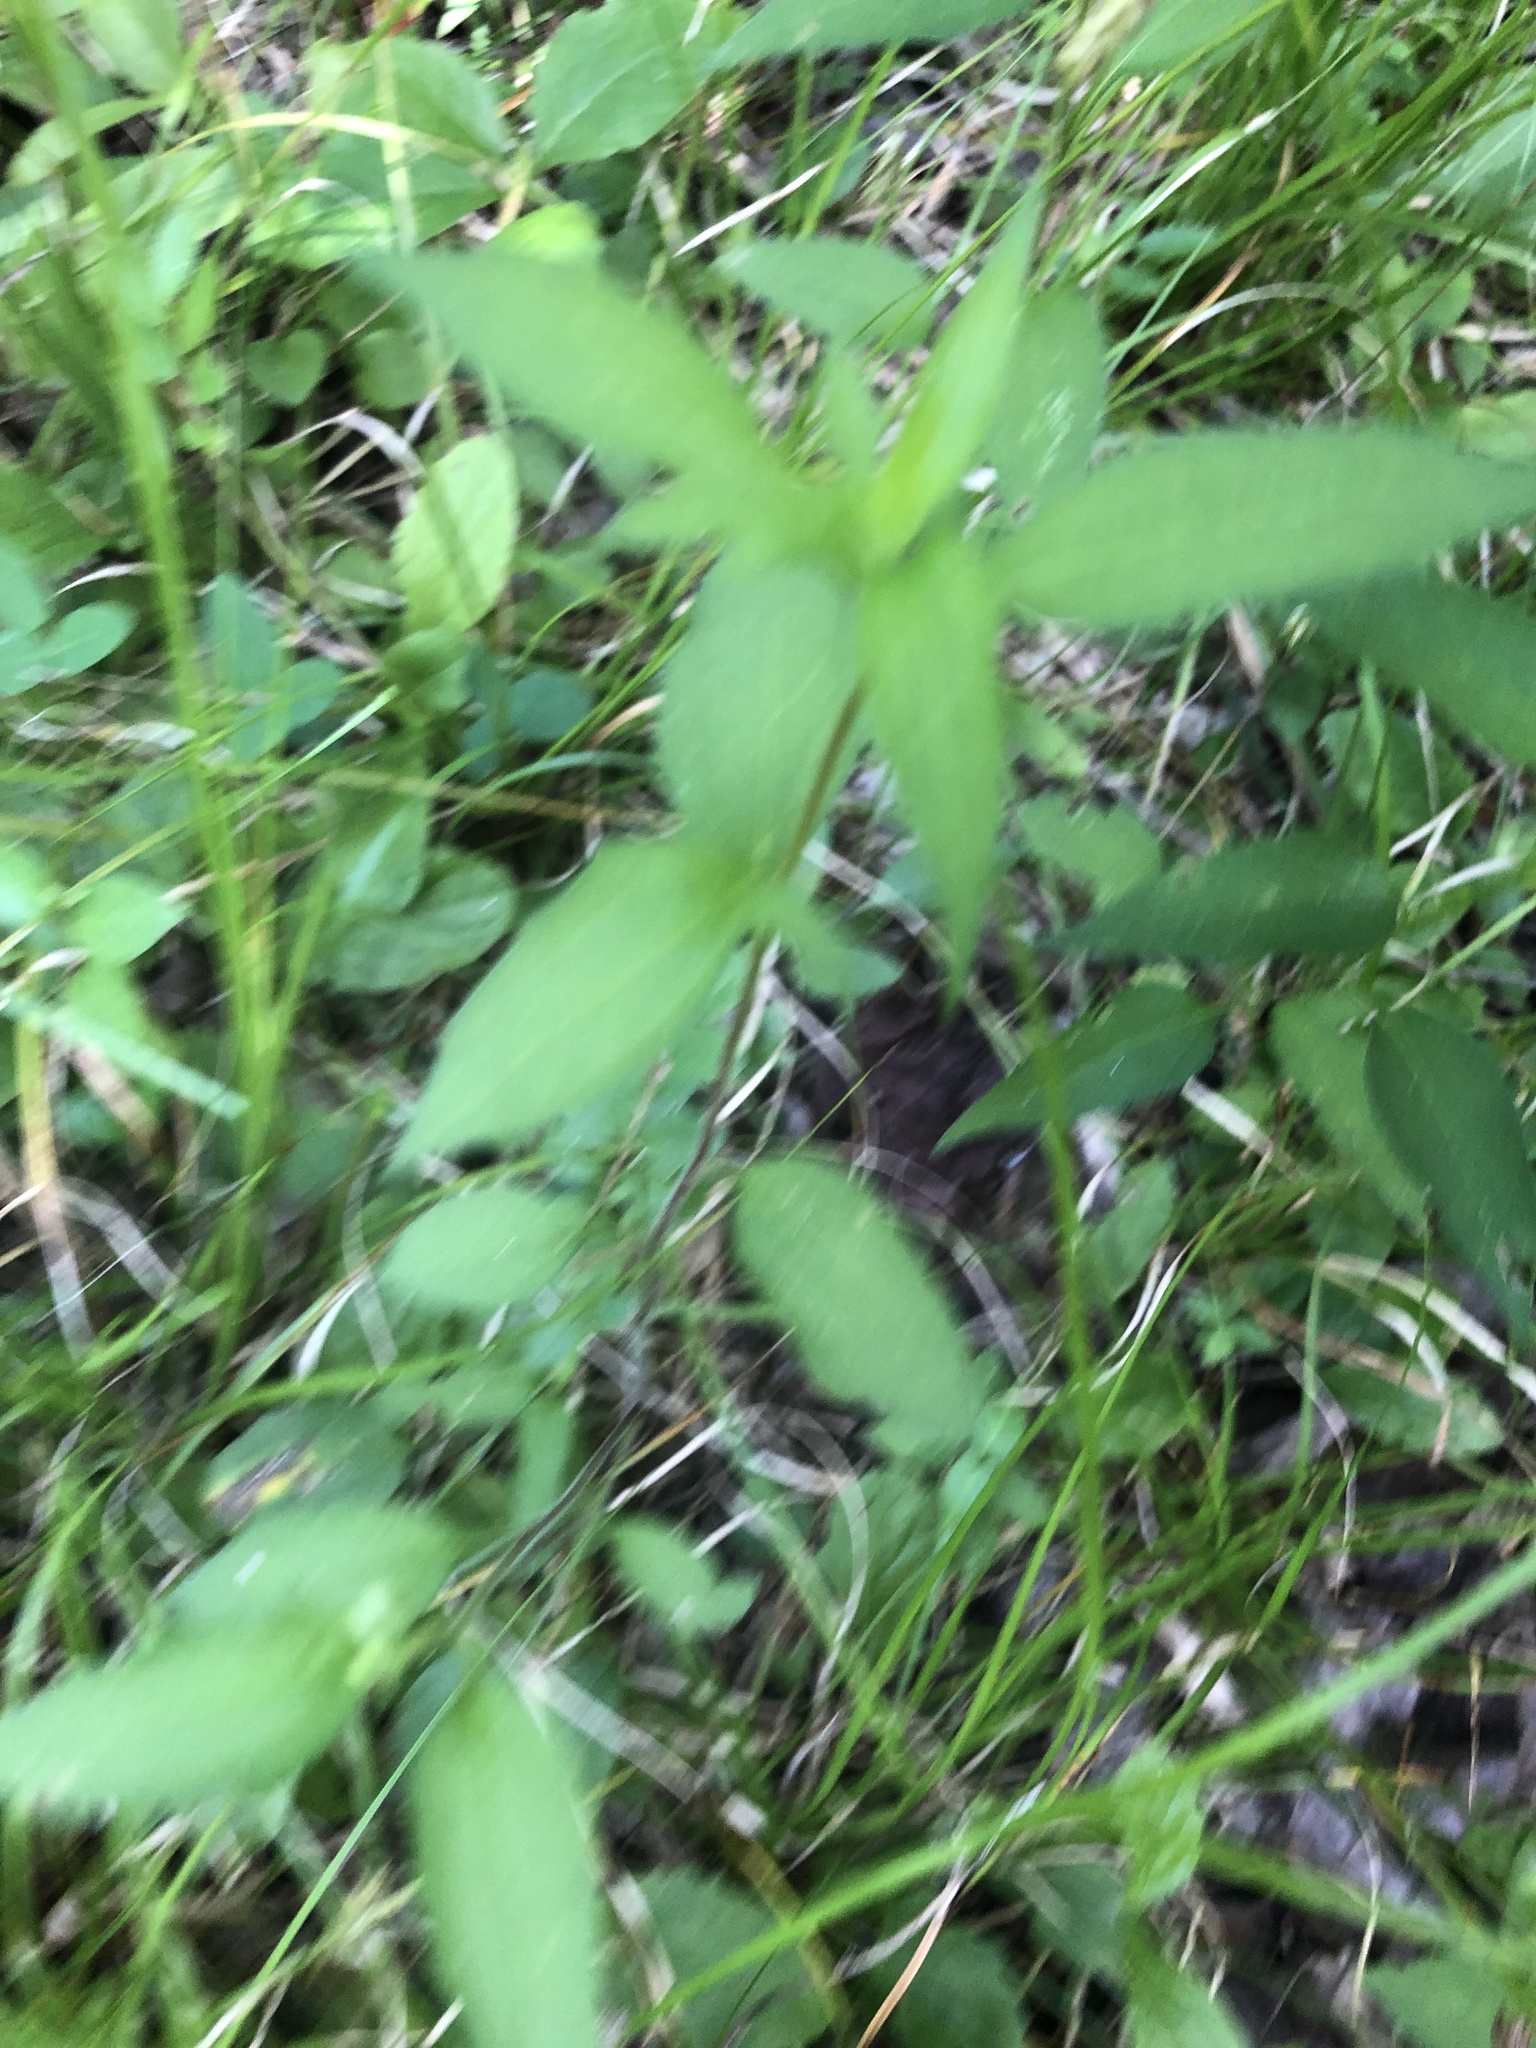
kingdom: Plantae
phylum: Tracheophyta
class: Magnoliopsida
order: Asterales
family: Asteraceae
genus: Rudbeckia
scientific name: Rudbeckia triloba
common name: Thin-leaved coneflower
